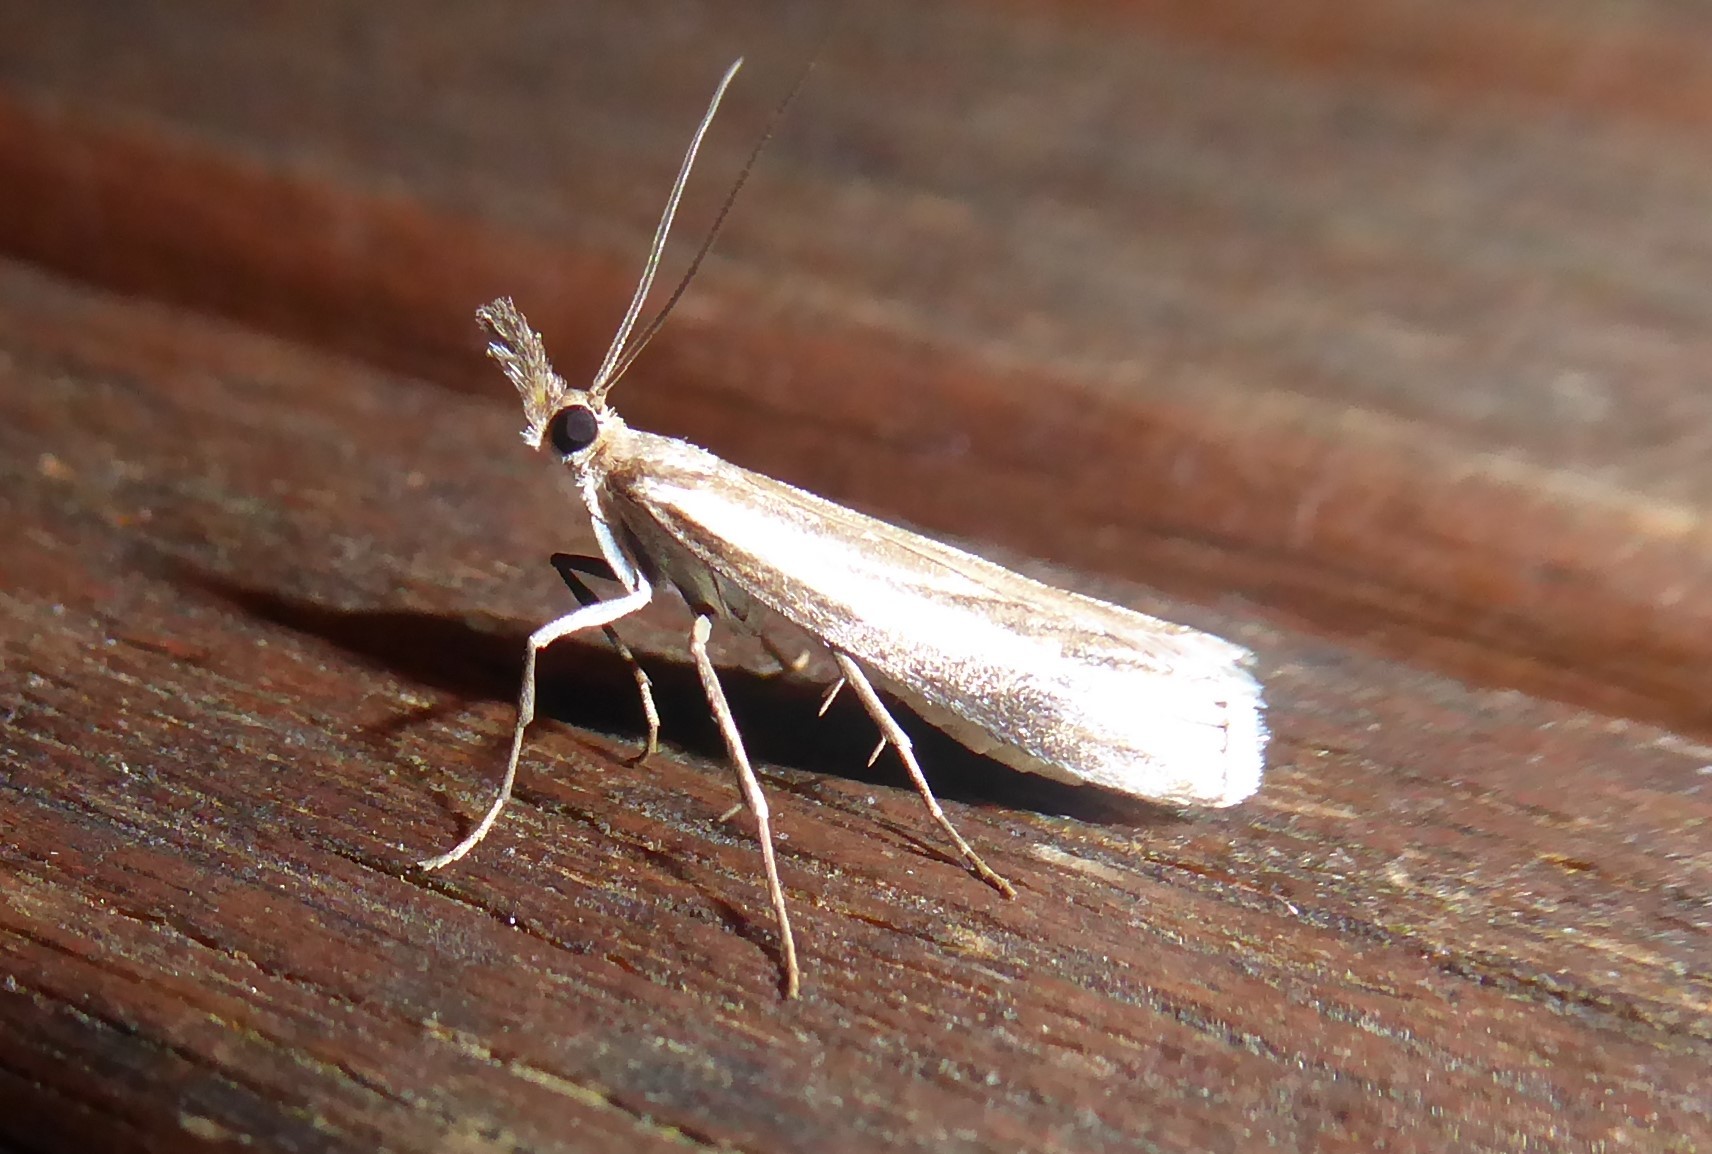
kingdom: Animalia
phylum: Arthropoda
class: Insecta
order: Lepidoptera
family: Crambidae
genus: Orocrambus
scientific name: Orocrambus vulgaris
